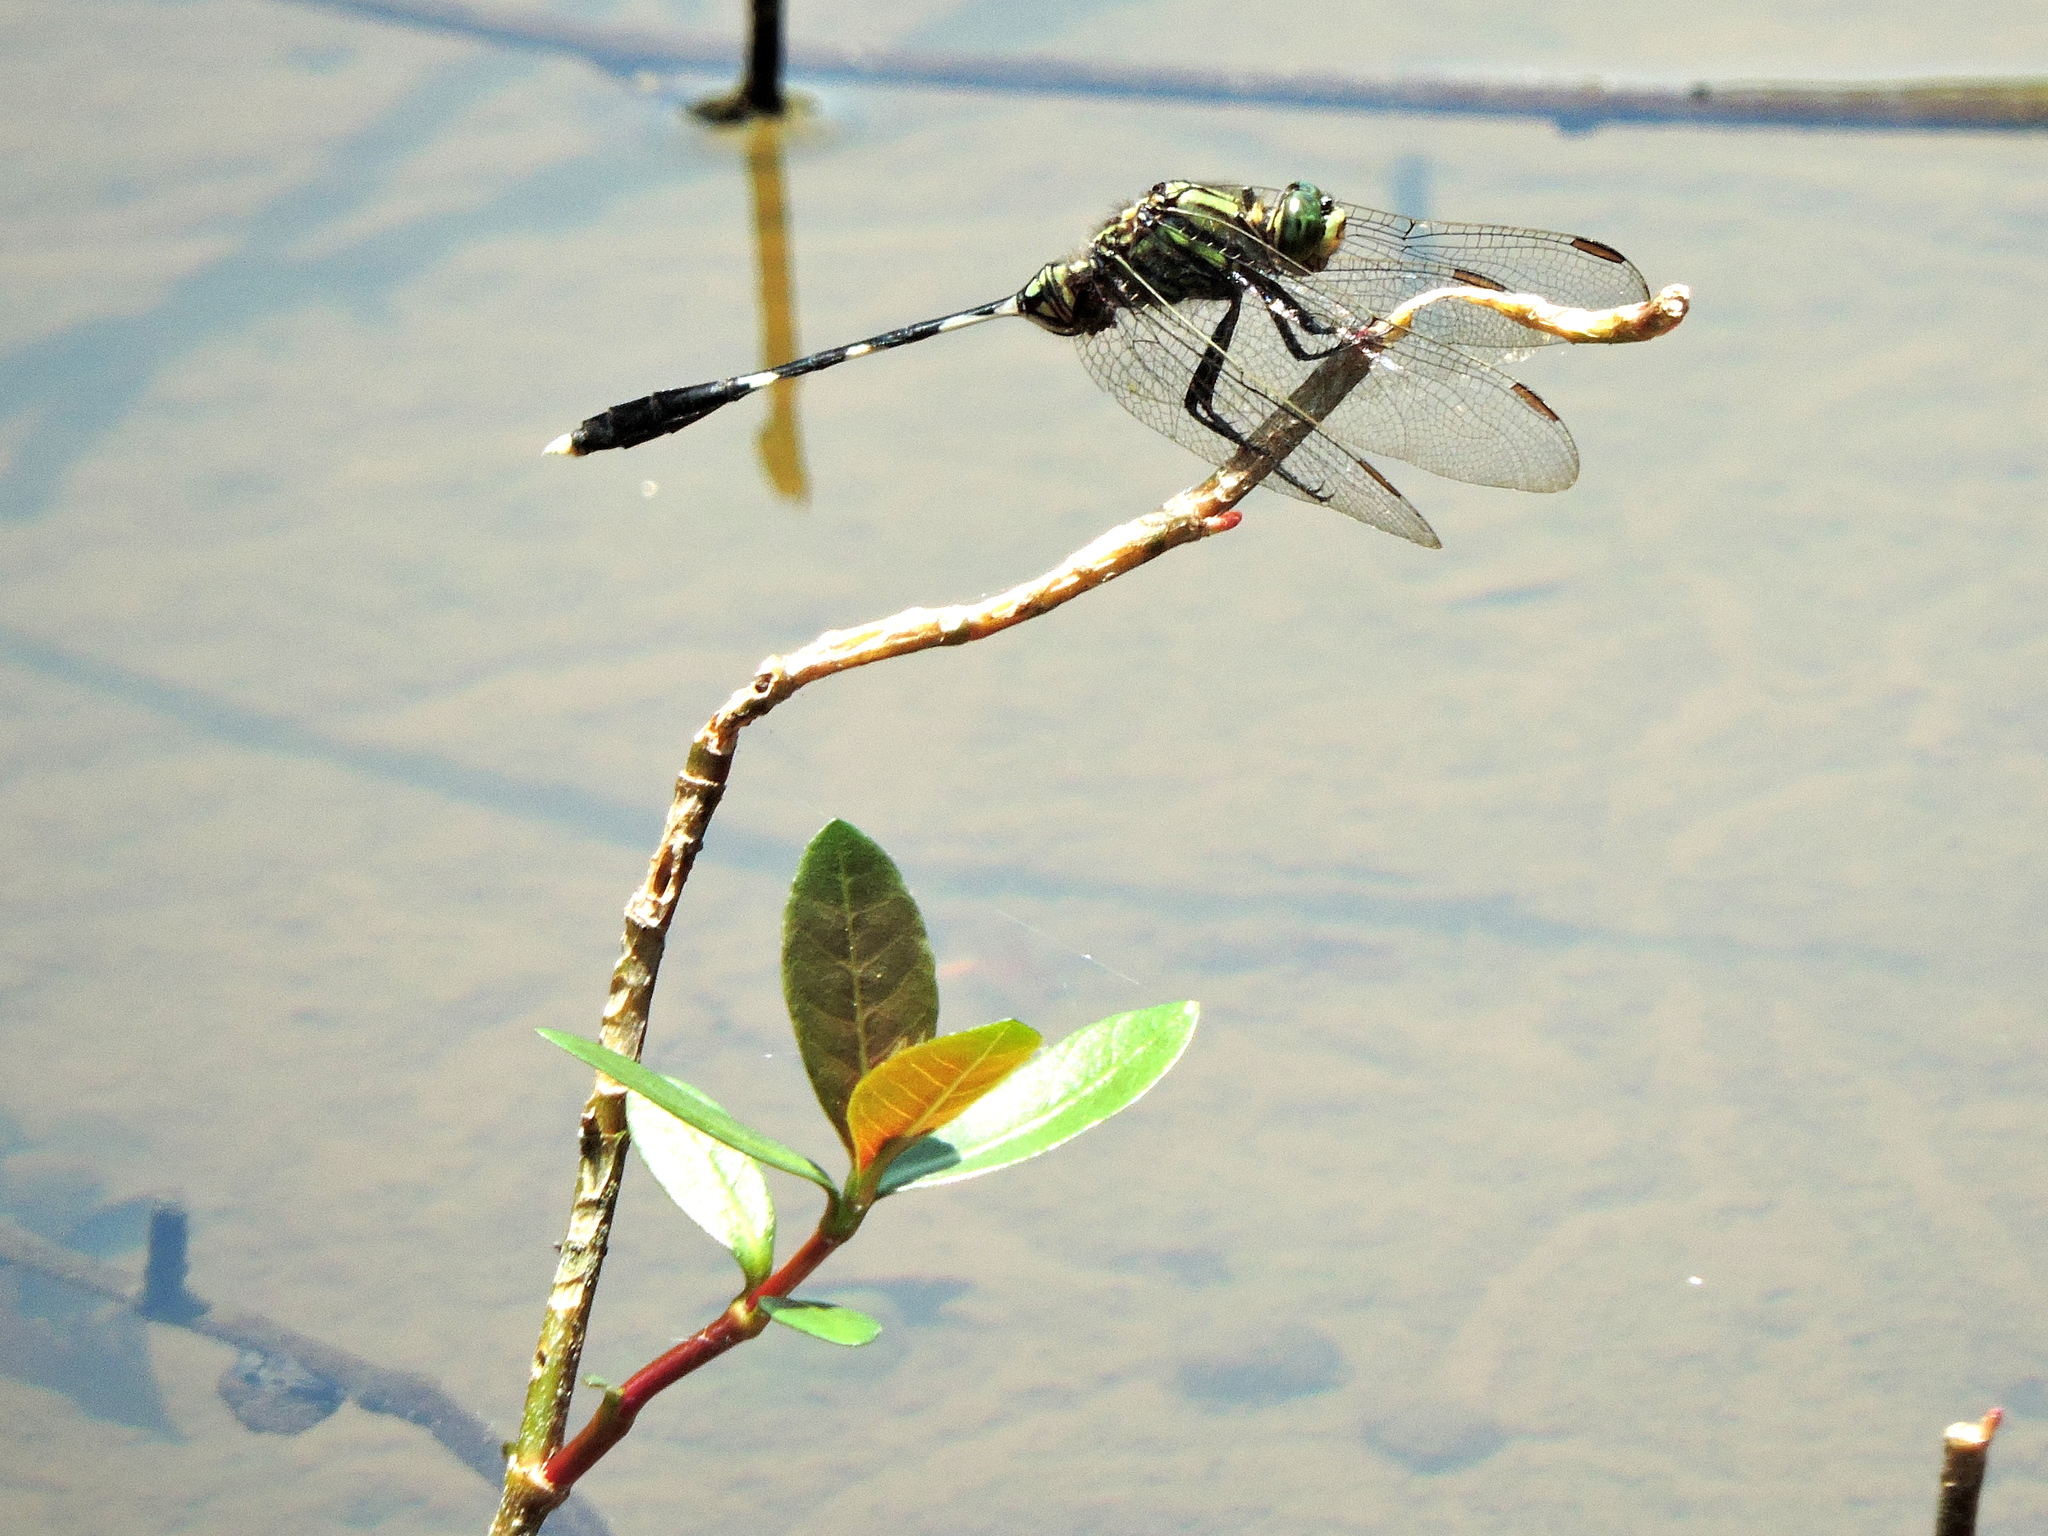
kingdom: Animalia
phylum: Arthropoda
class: Insecta
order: Odonata
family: Libellulidae
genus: Orthetrum
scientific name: Orthetrum sabina
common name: Slender skimmer
